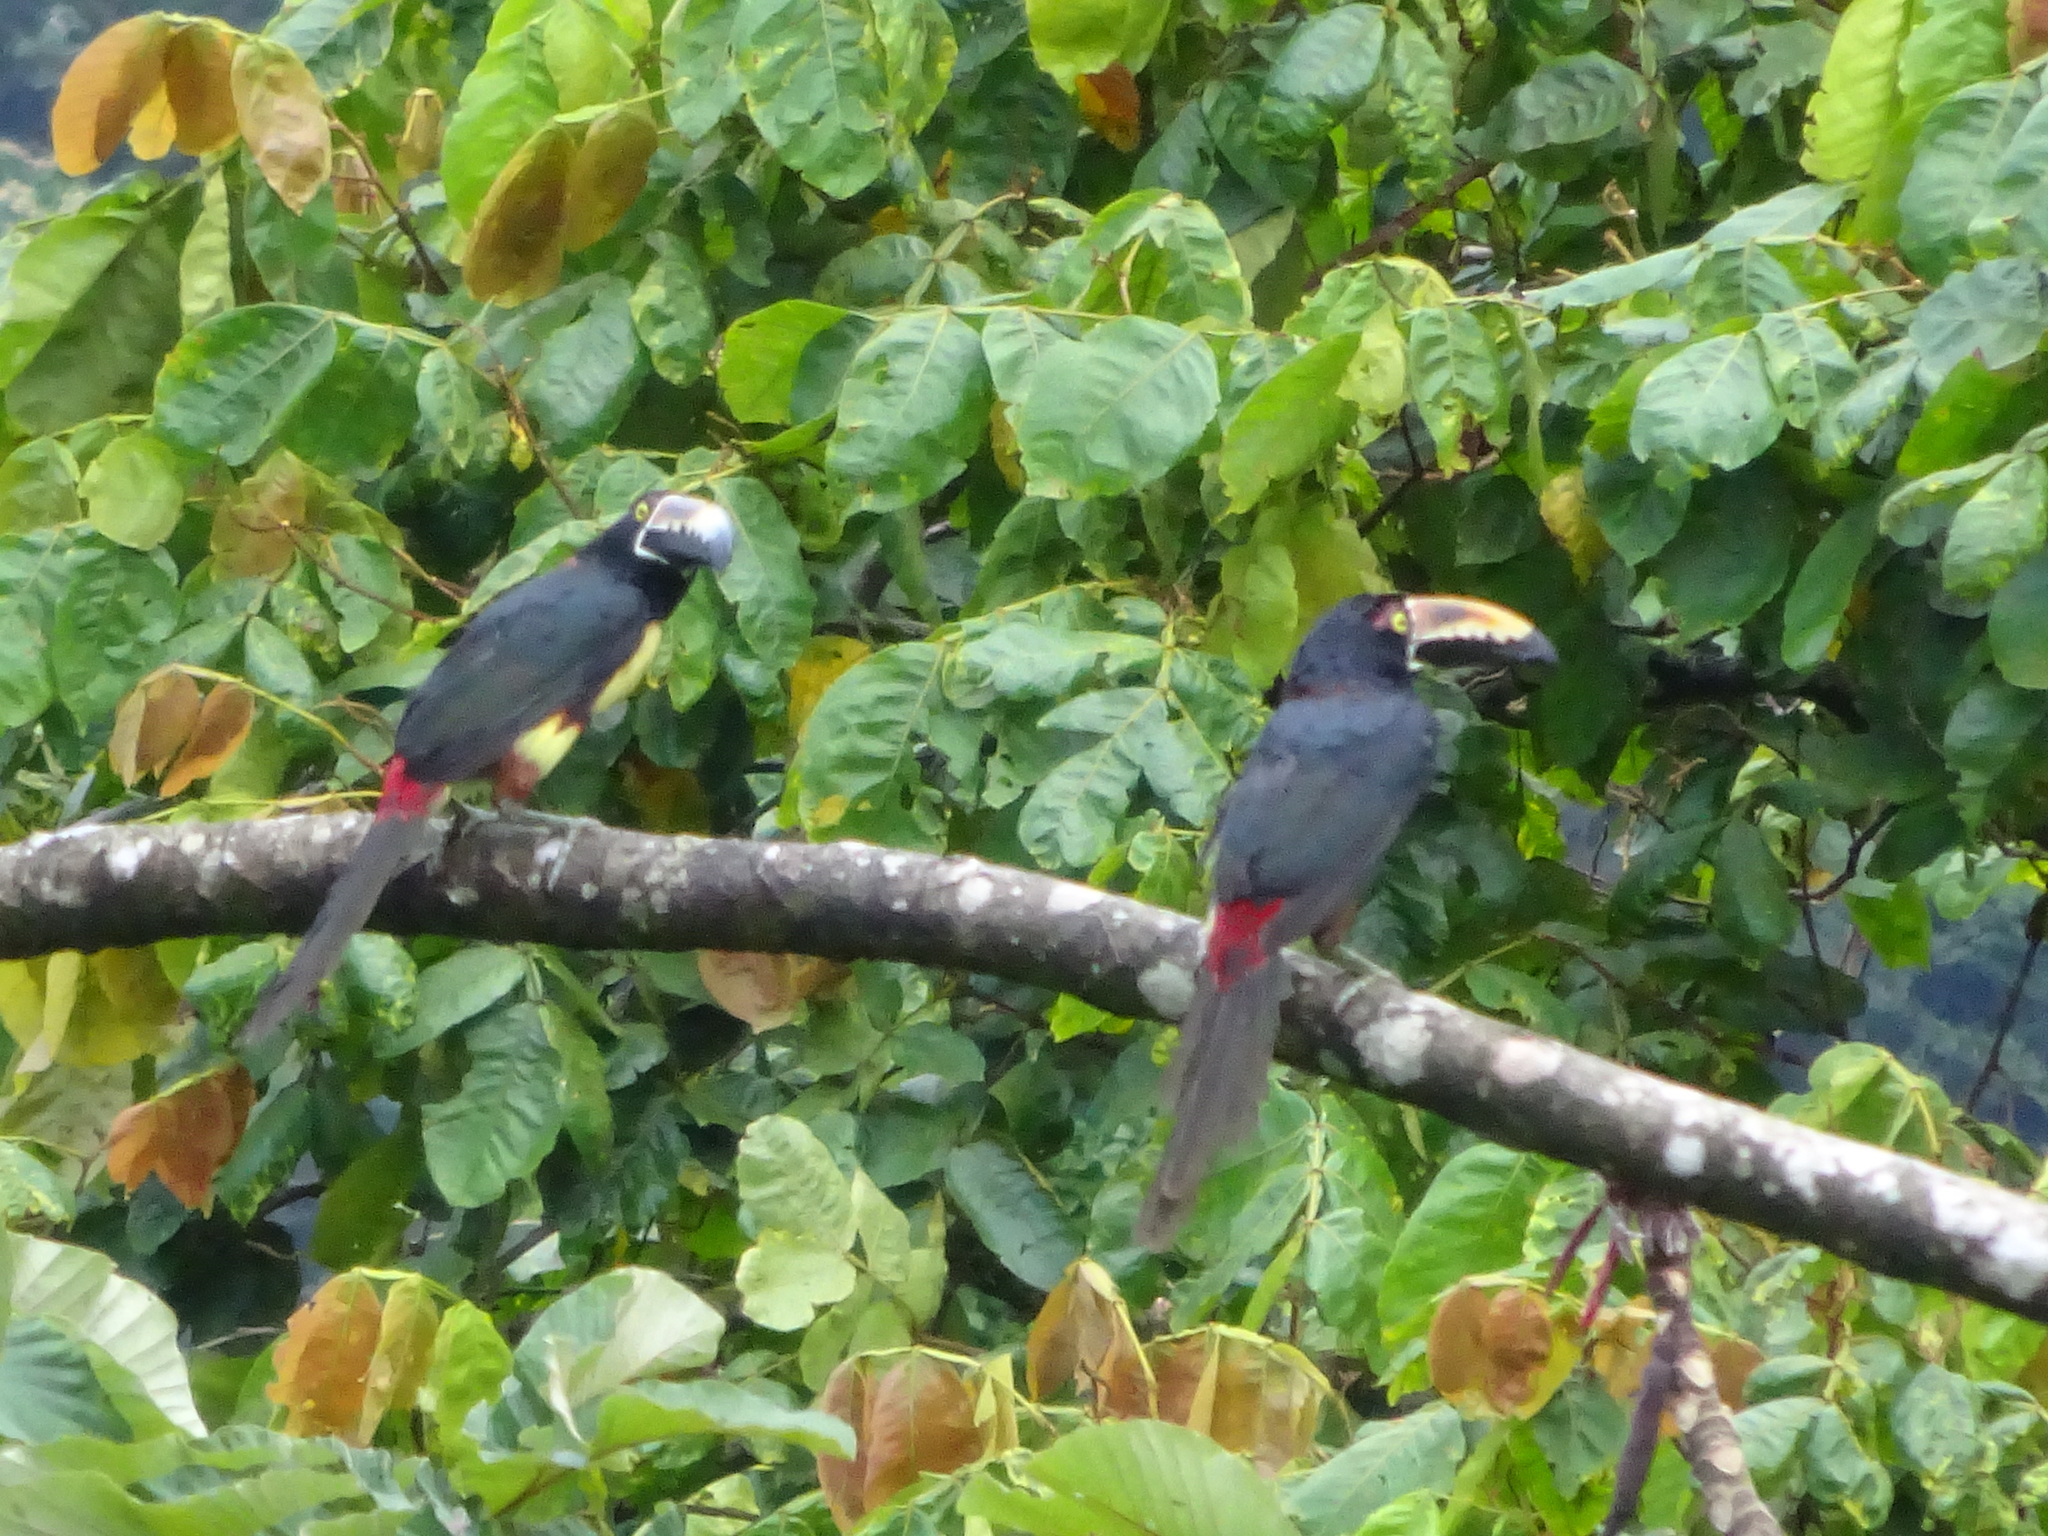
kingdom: Animalia
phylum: Chordata
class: Aves
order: Piciformes
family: Ramphastidae
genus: Pteroglossus
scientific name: Pteroglossus torquatus
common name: Collared aracari
